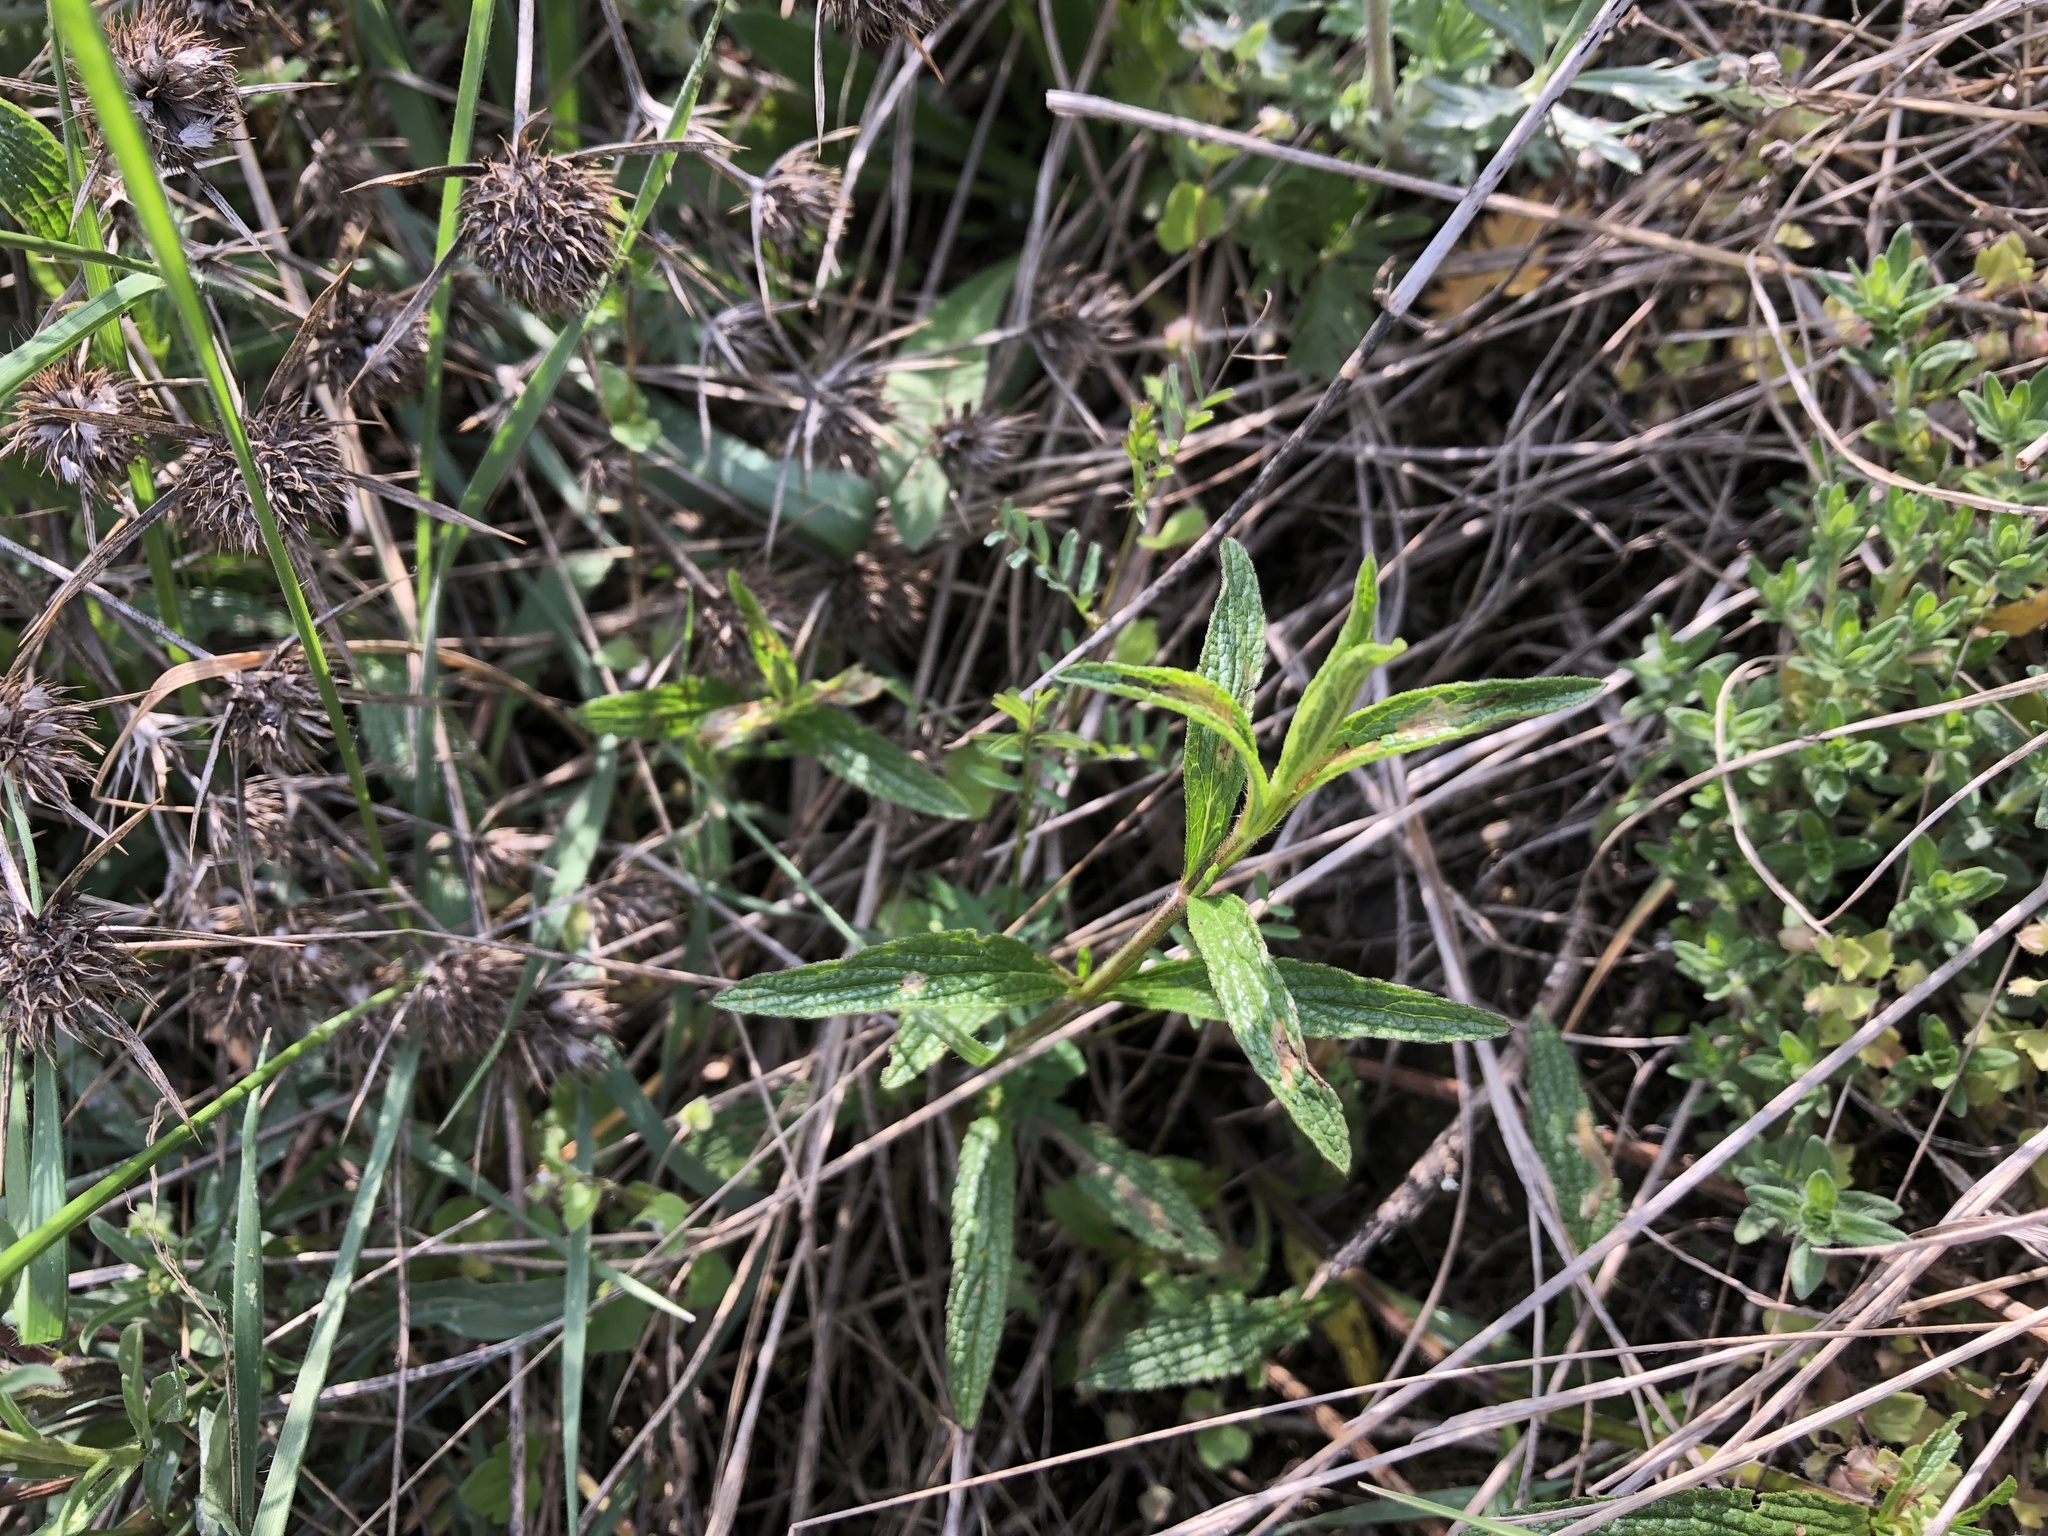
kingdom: Plantae
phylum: Tracheophyta
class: Magnoliopsida
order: Lamiales
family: Lamiaceae
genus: Stachys
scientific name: Stachys recta
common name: Perennial yellow-woundwort
